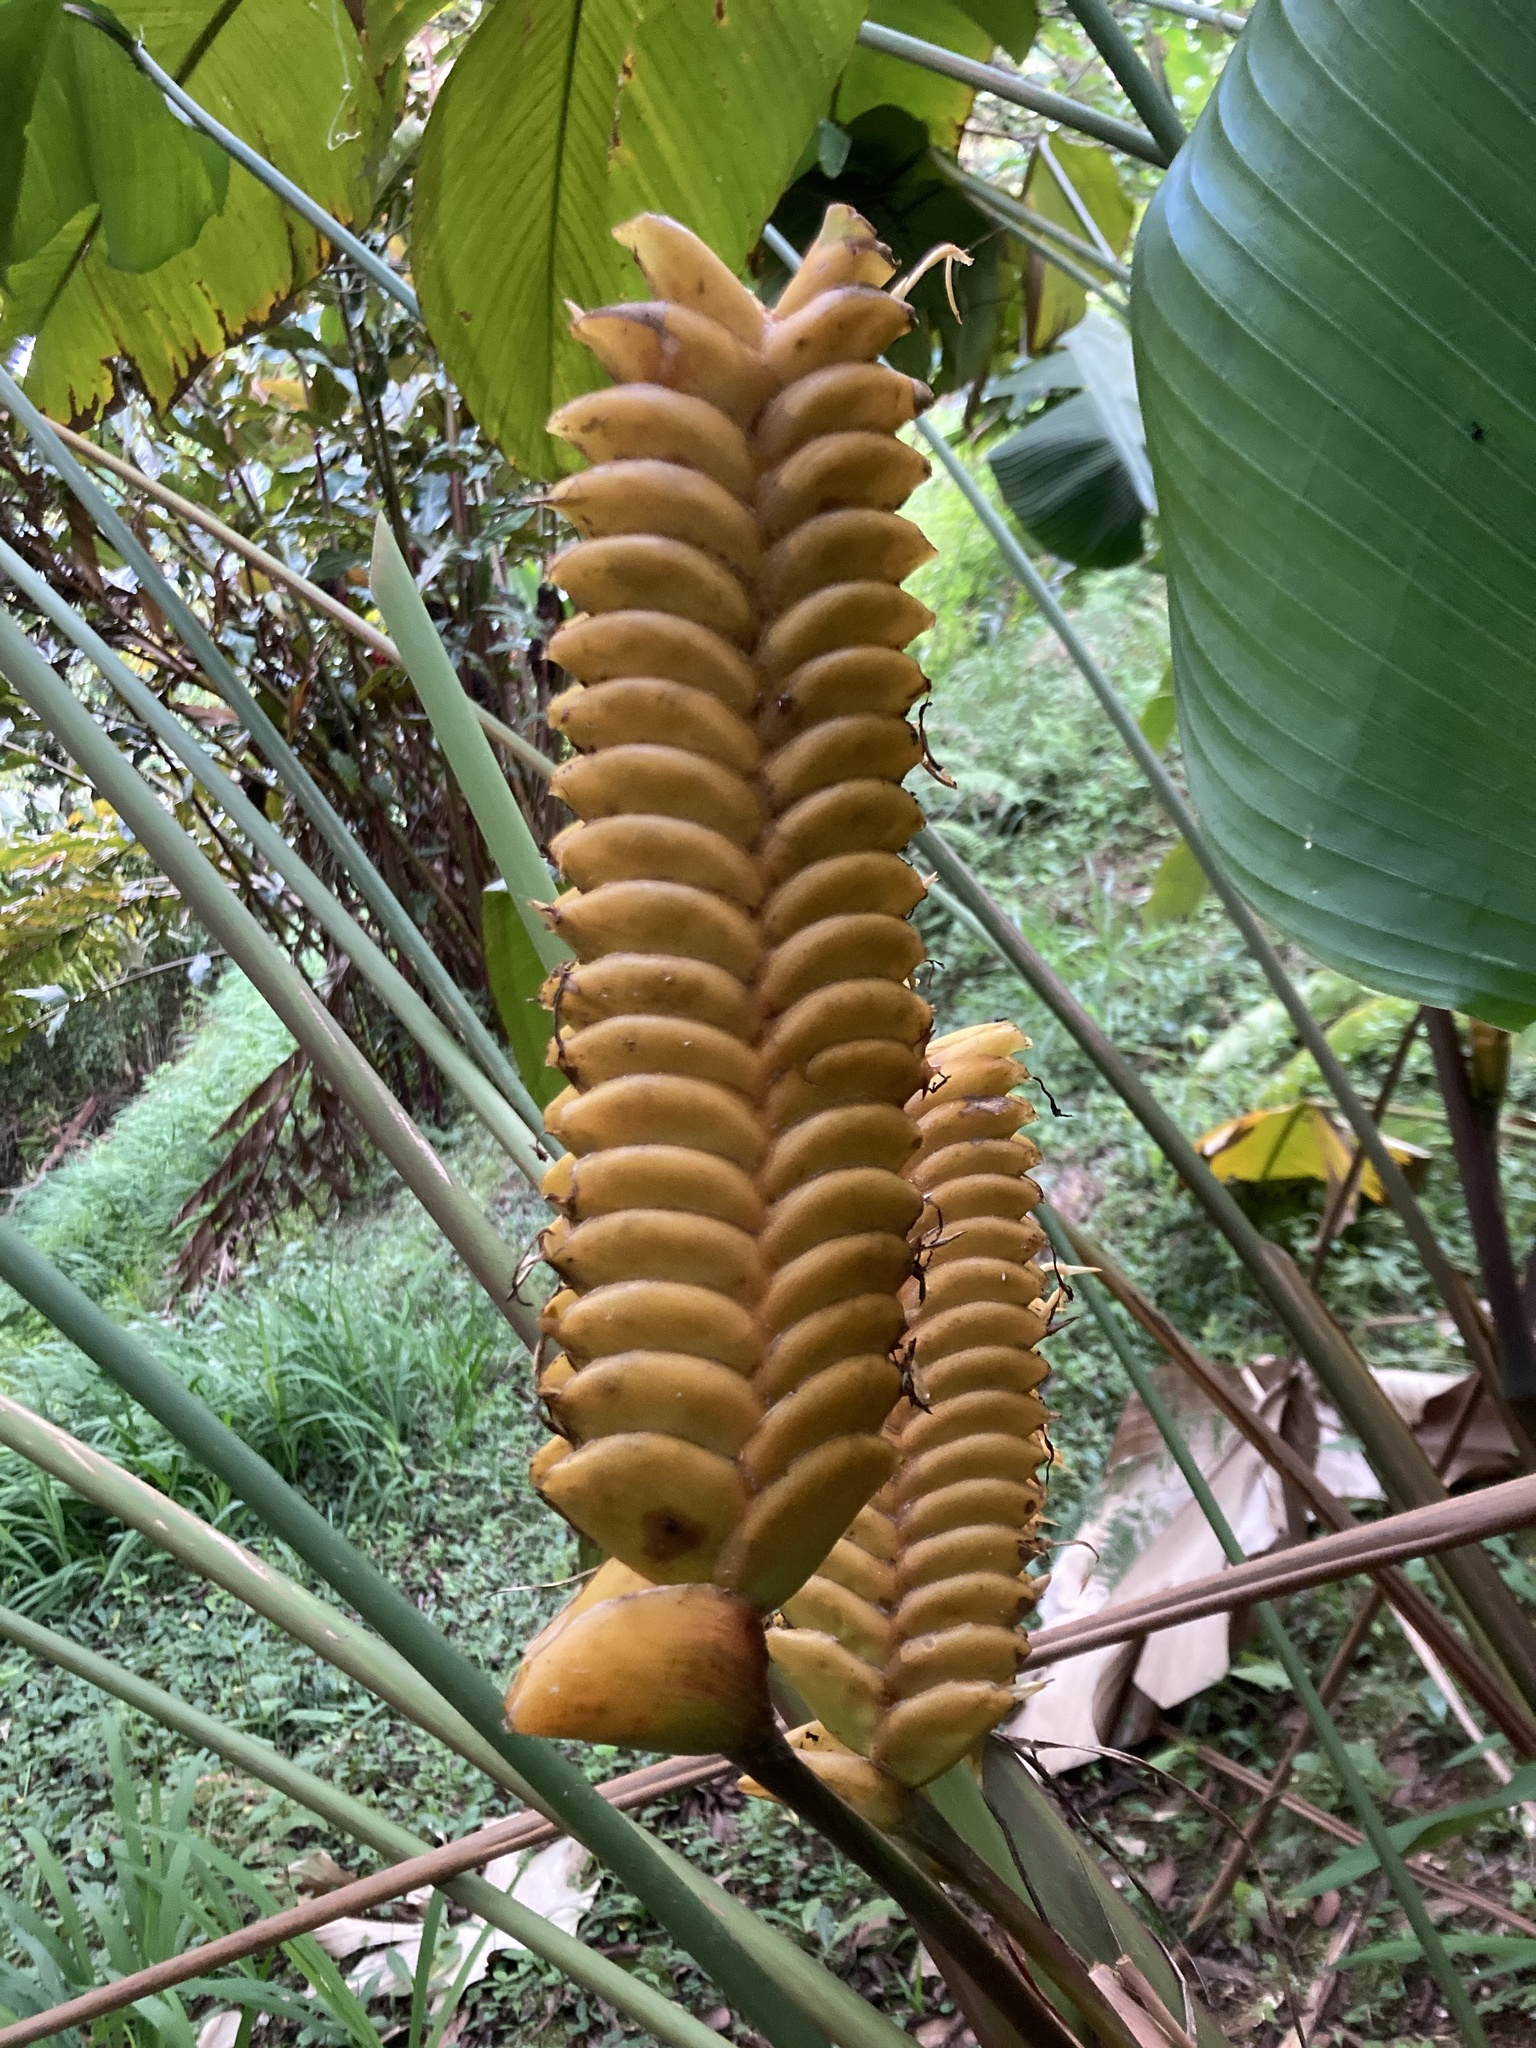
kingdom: Plantae
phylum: Tracheophyta
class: Liliopsida
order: Zingiberales
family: Marantaceae
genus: Calathea
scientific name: Calathea crotalifera
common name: Rattlesnake plant
